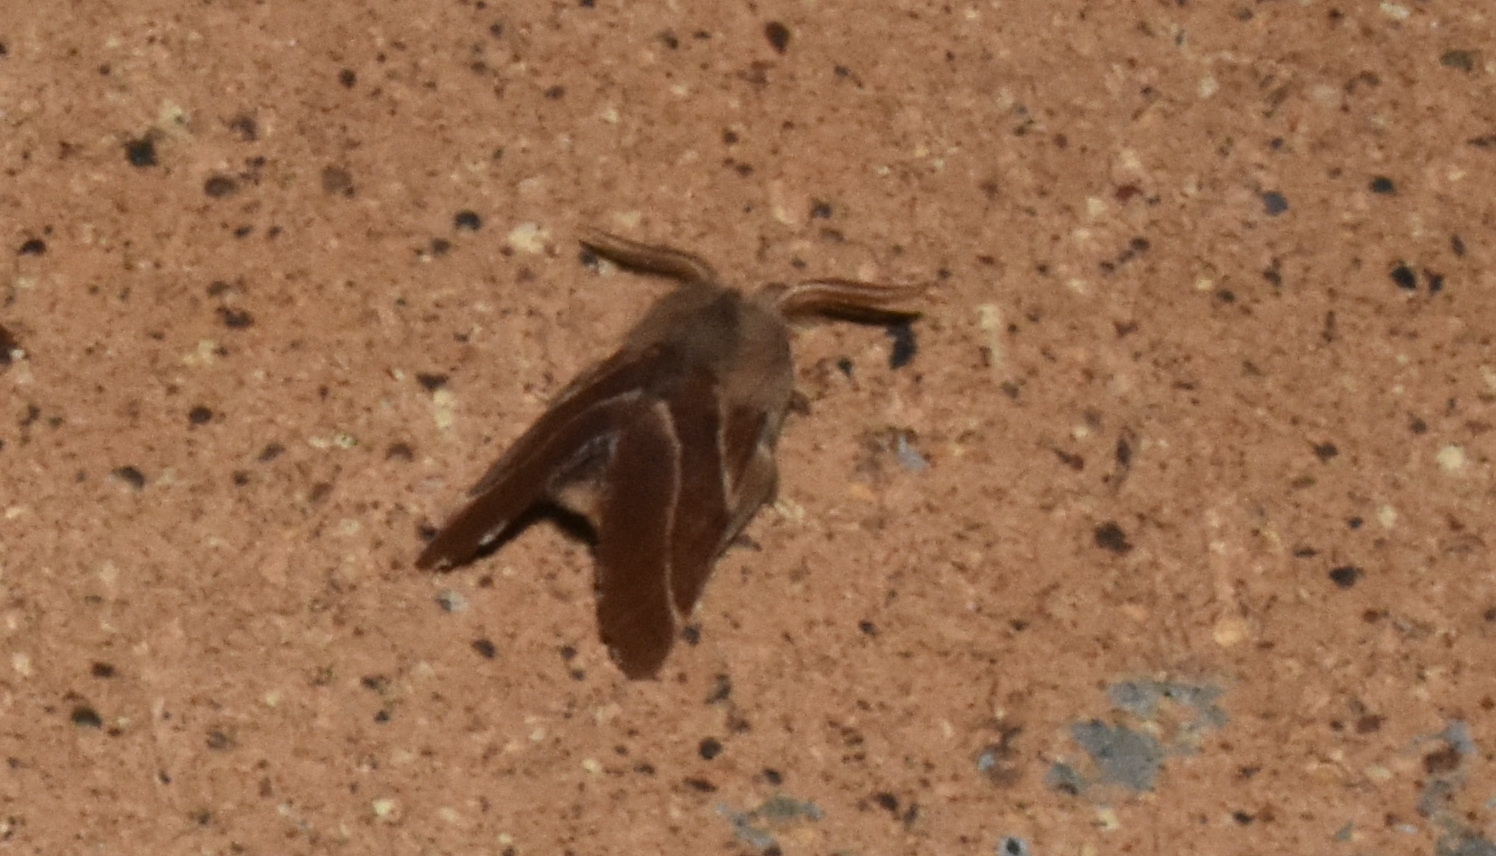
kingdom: Animalia
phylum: Arthropoda
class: Insecta
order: Lepidoptera
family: Lasiocampidae
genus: Malacosoma
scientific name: Malacosoma californica
